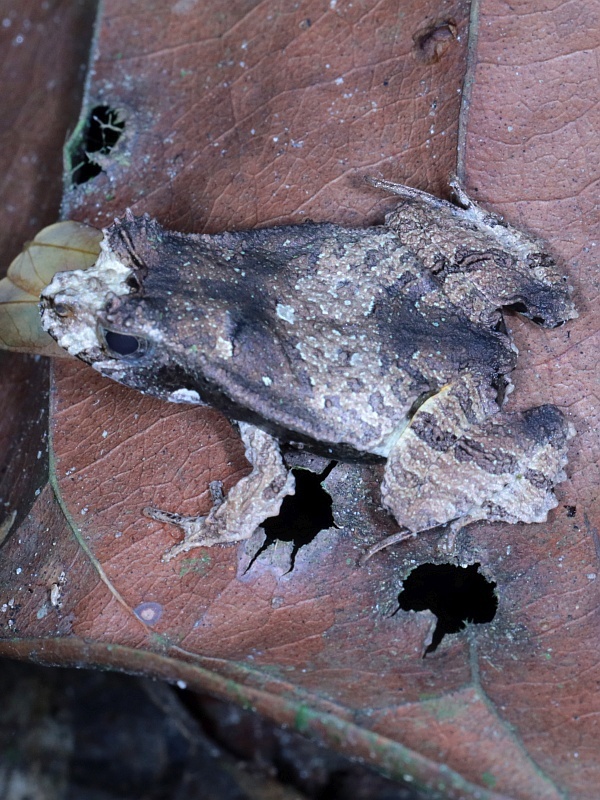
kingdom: Animalia
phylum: Chordata
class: Amphibia
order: Anura
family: Leptodactylidae
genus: Edalorhina
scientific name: Edalorhina perezi
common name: Perez’s snouted frog
